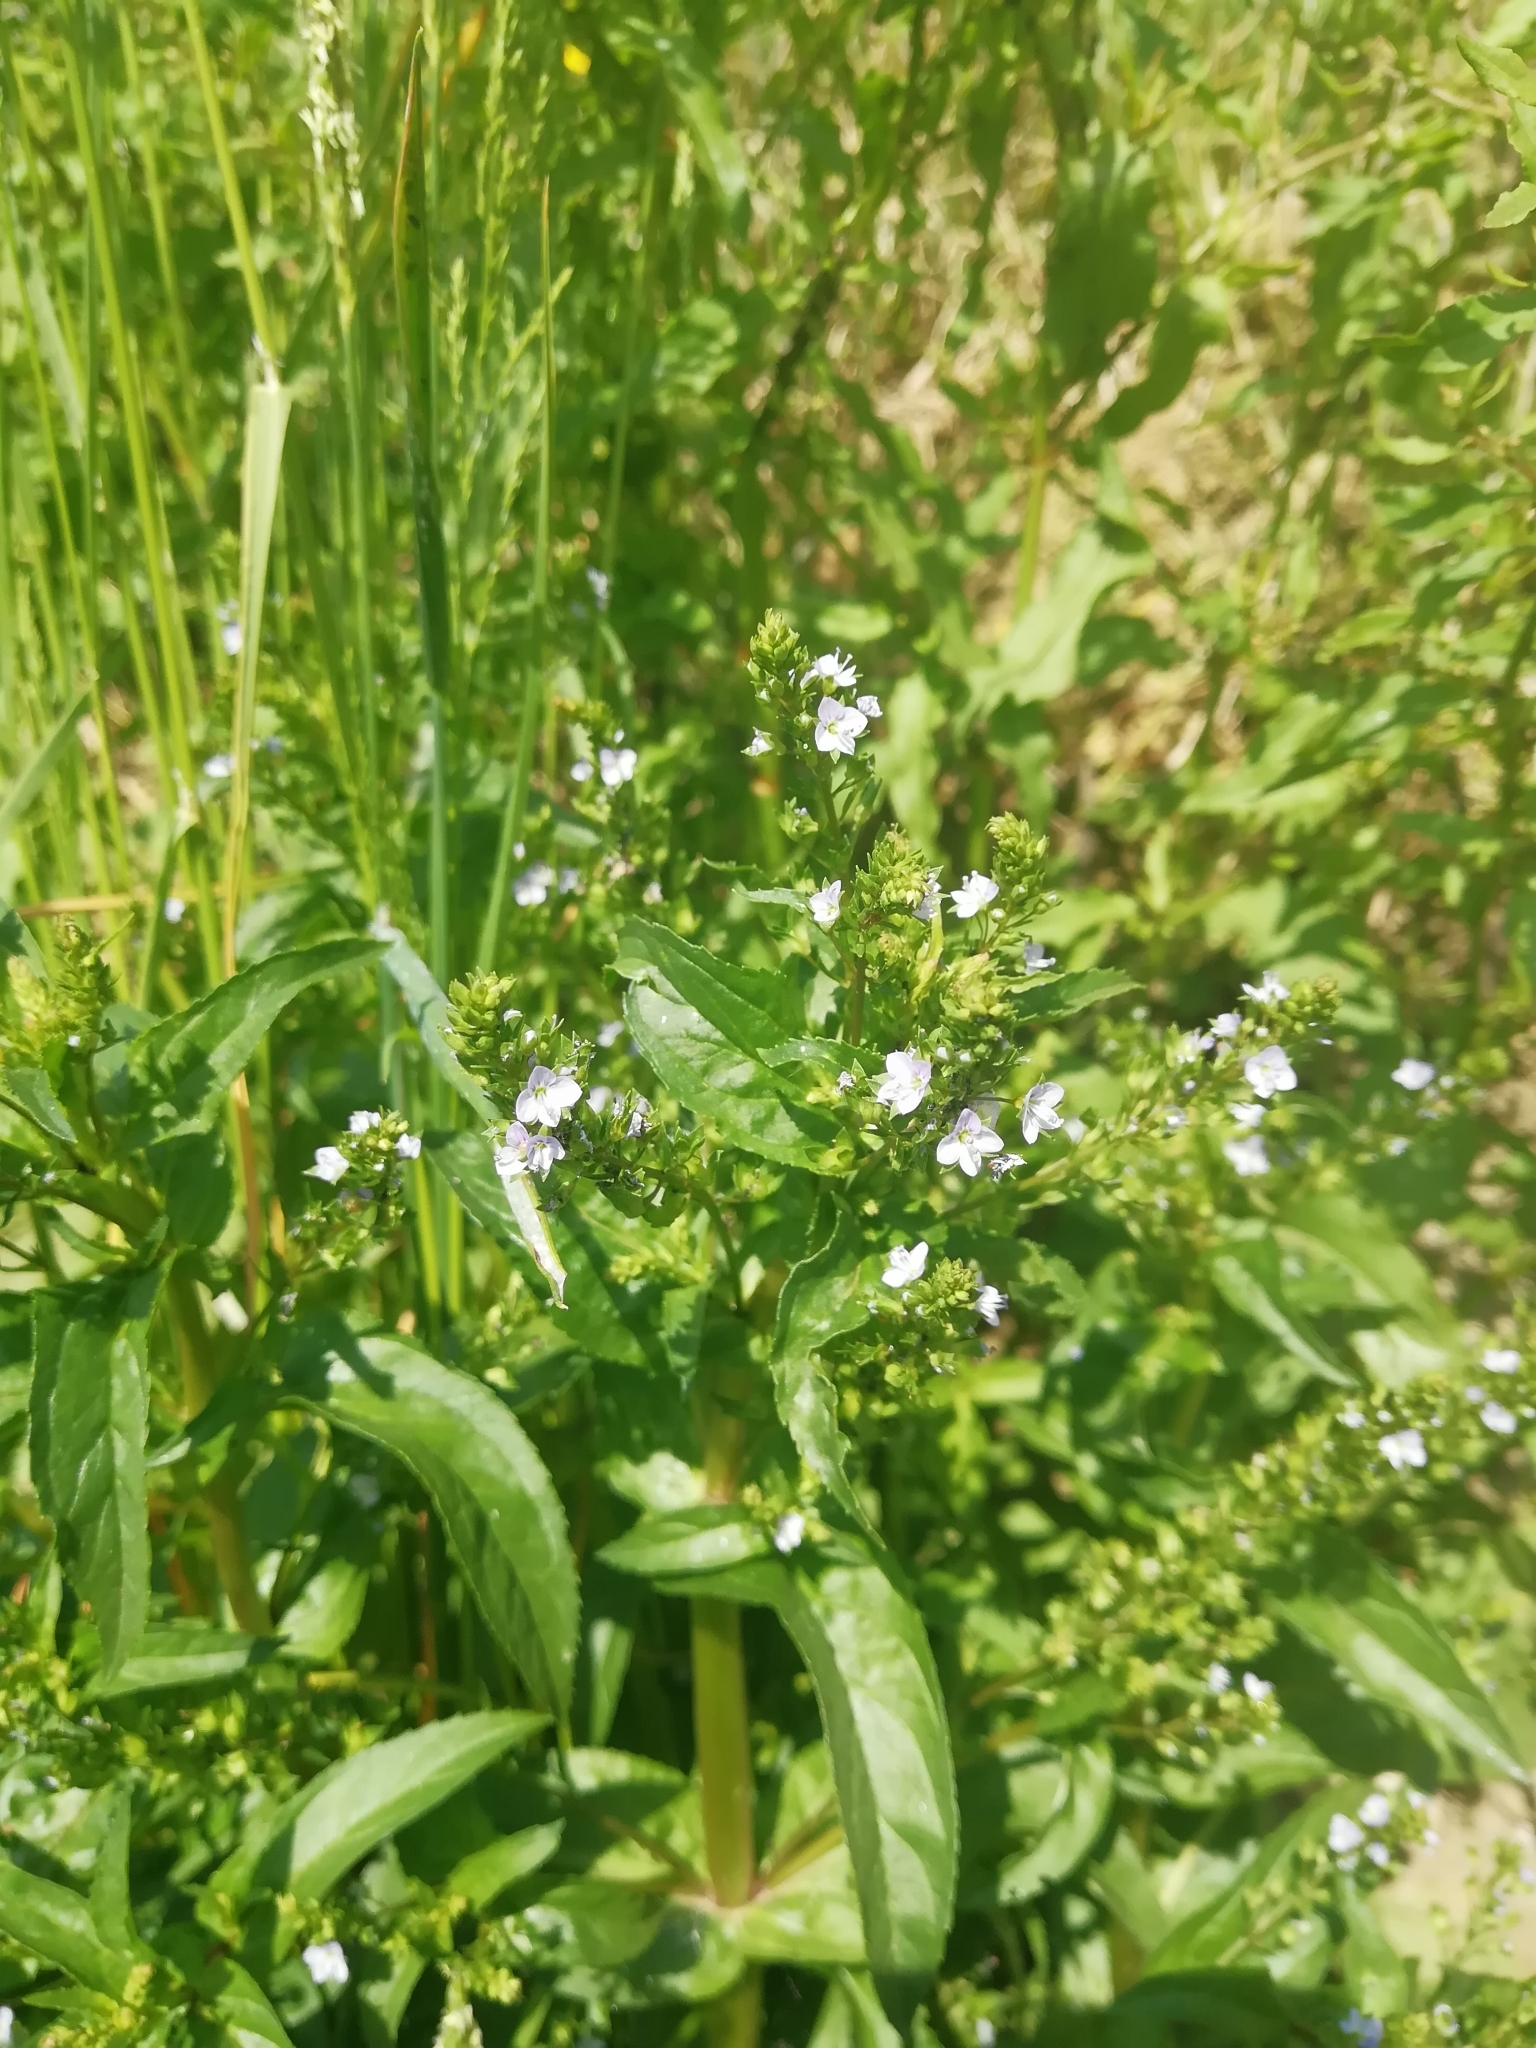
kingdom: Plantae
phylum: Tracheophyta
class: Magnoliopsida
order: Lamiales
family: Plantaginaceae
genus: Veronica
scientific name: Veronica anagallis-aquatica
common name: Water speedwell
